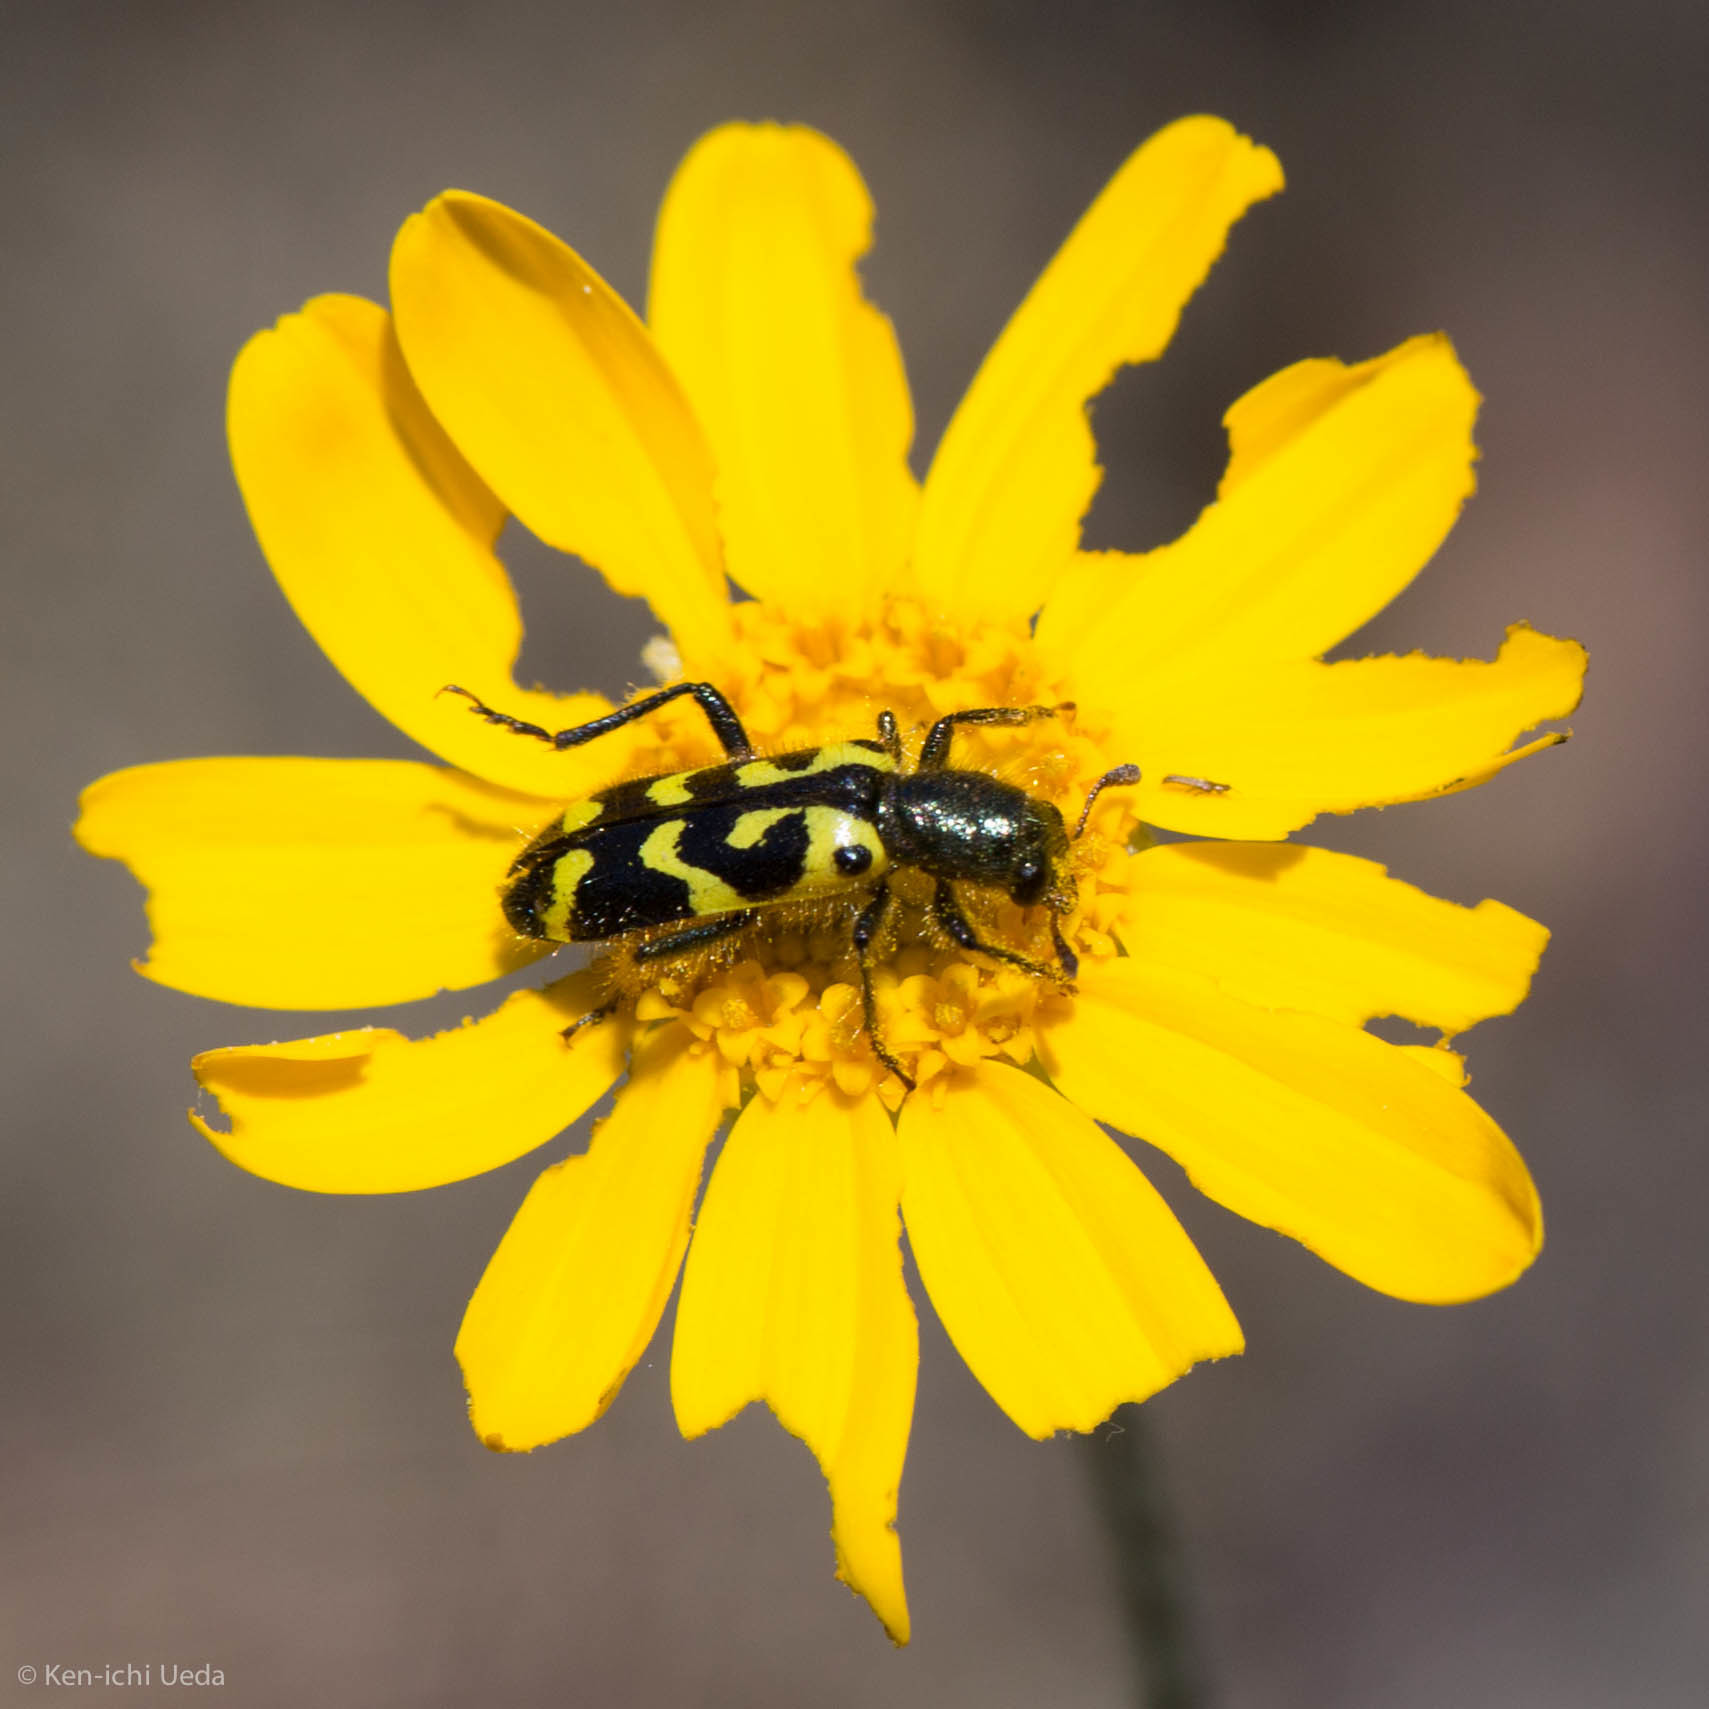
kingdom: Animalia
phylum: Arthropoda
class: Insecta
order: Coleoptera
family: Cleridae
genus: Trichodes
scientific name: Trichodes ornatus
